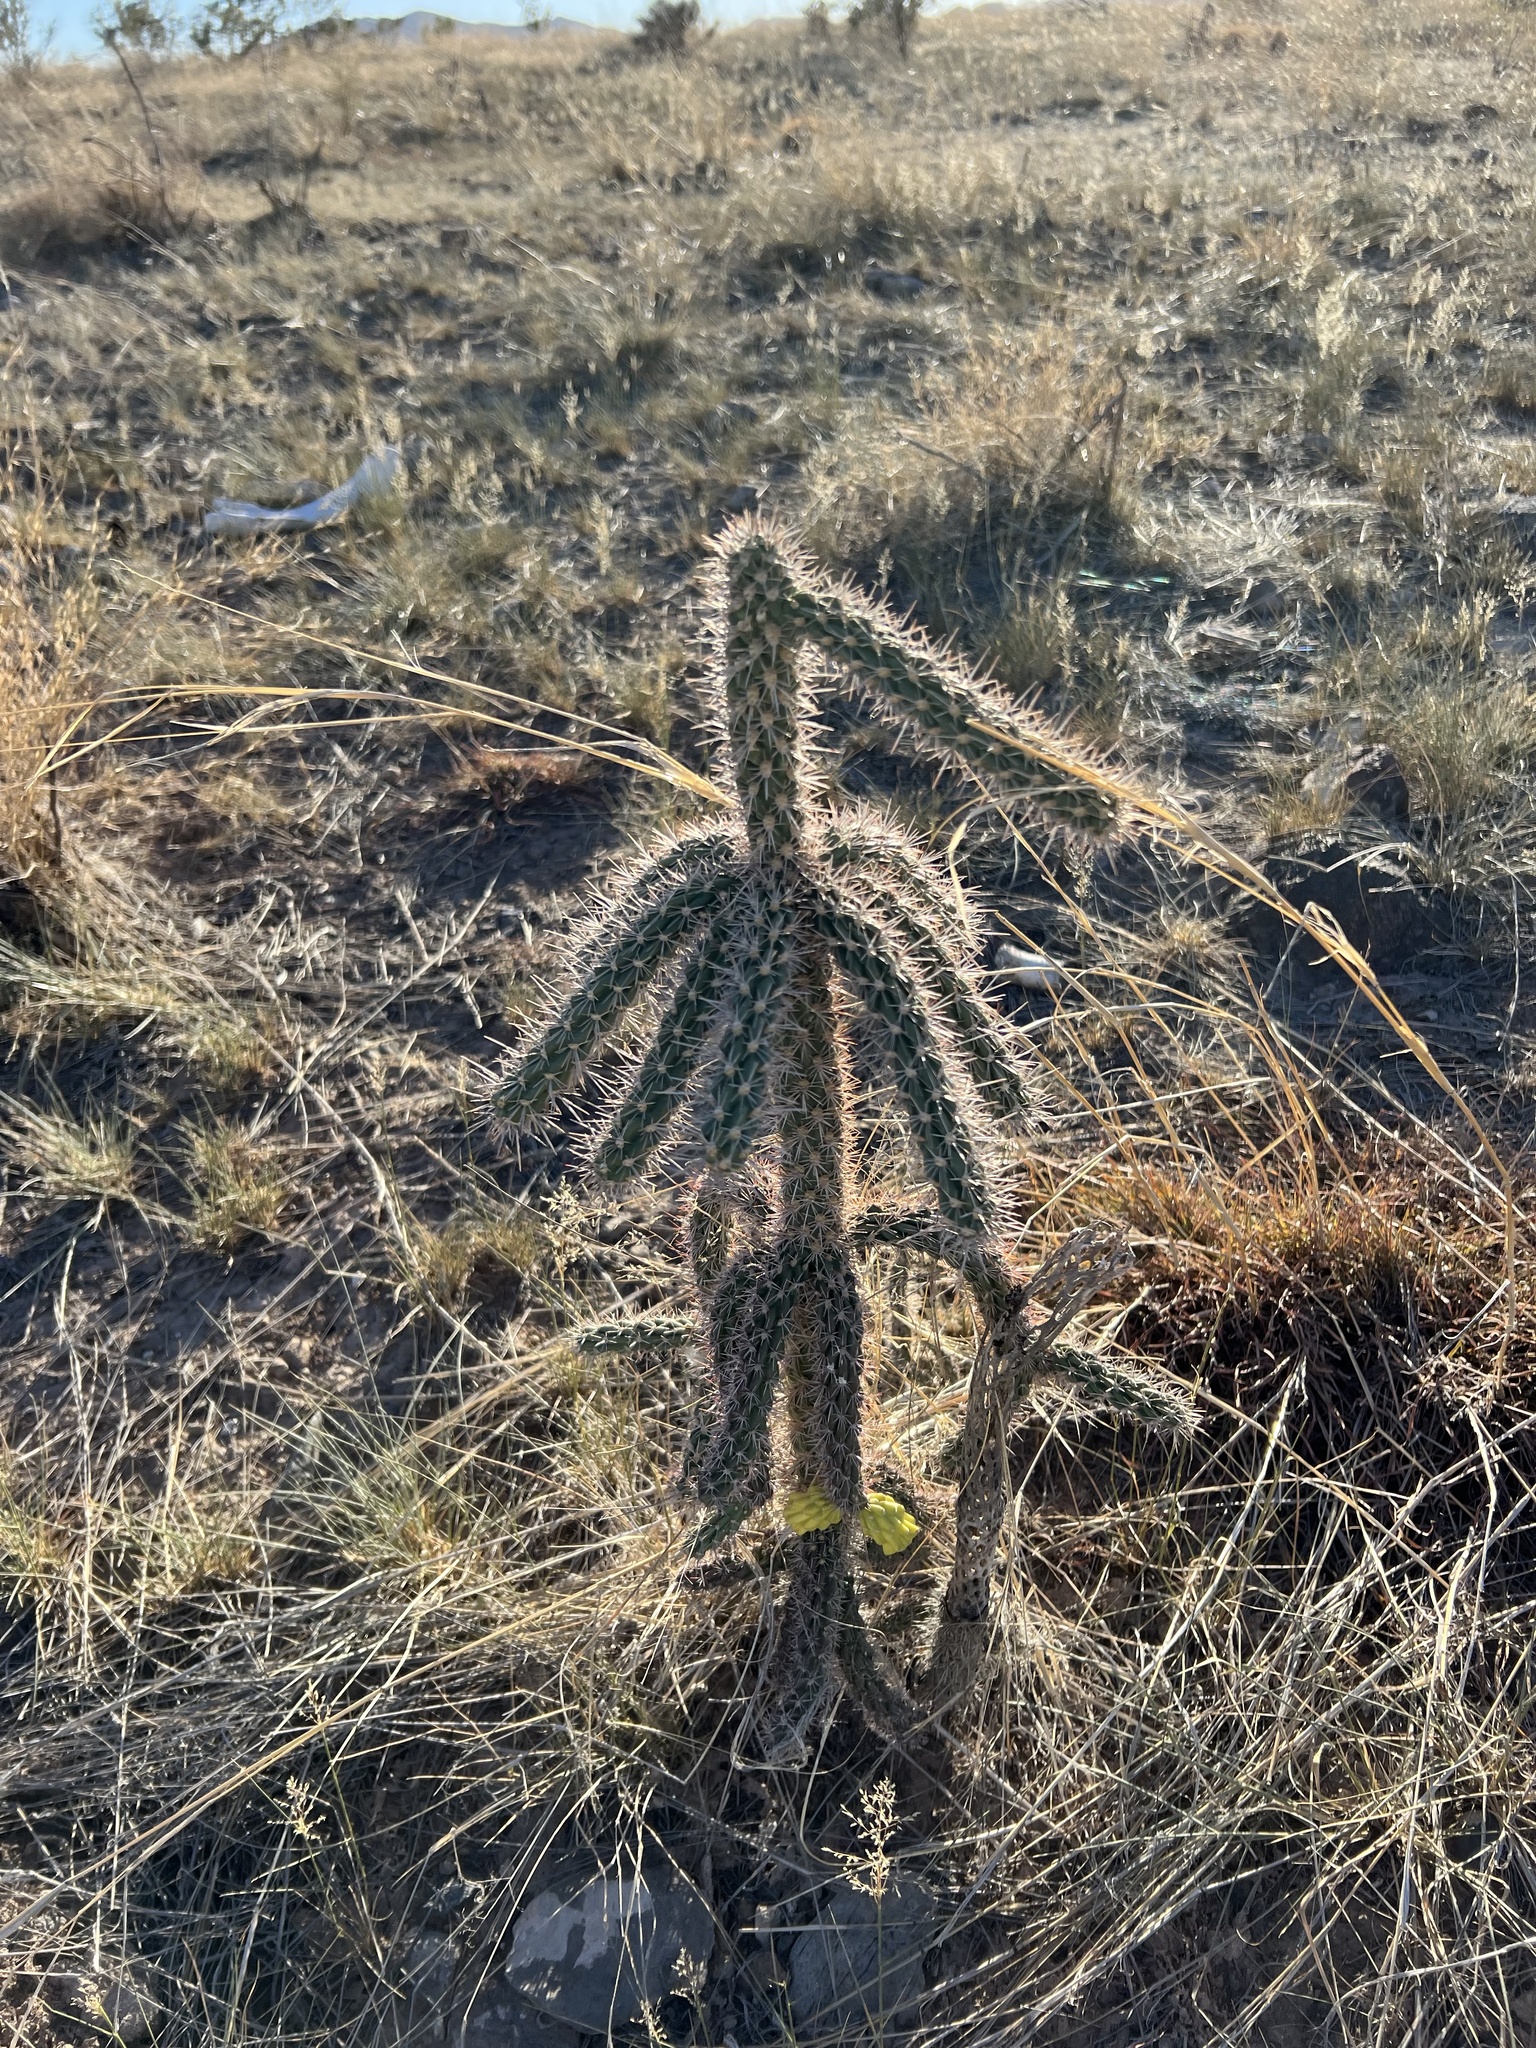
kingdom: Plantae
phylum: Tracheophyta
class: Magnoliopsida
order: Caryophyllales
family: Cactaceae
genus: Cylindropuntia
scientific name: Cylindropuntia imbricata
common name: Candelabrum cactus
